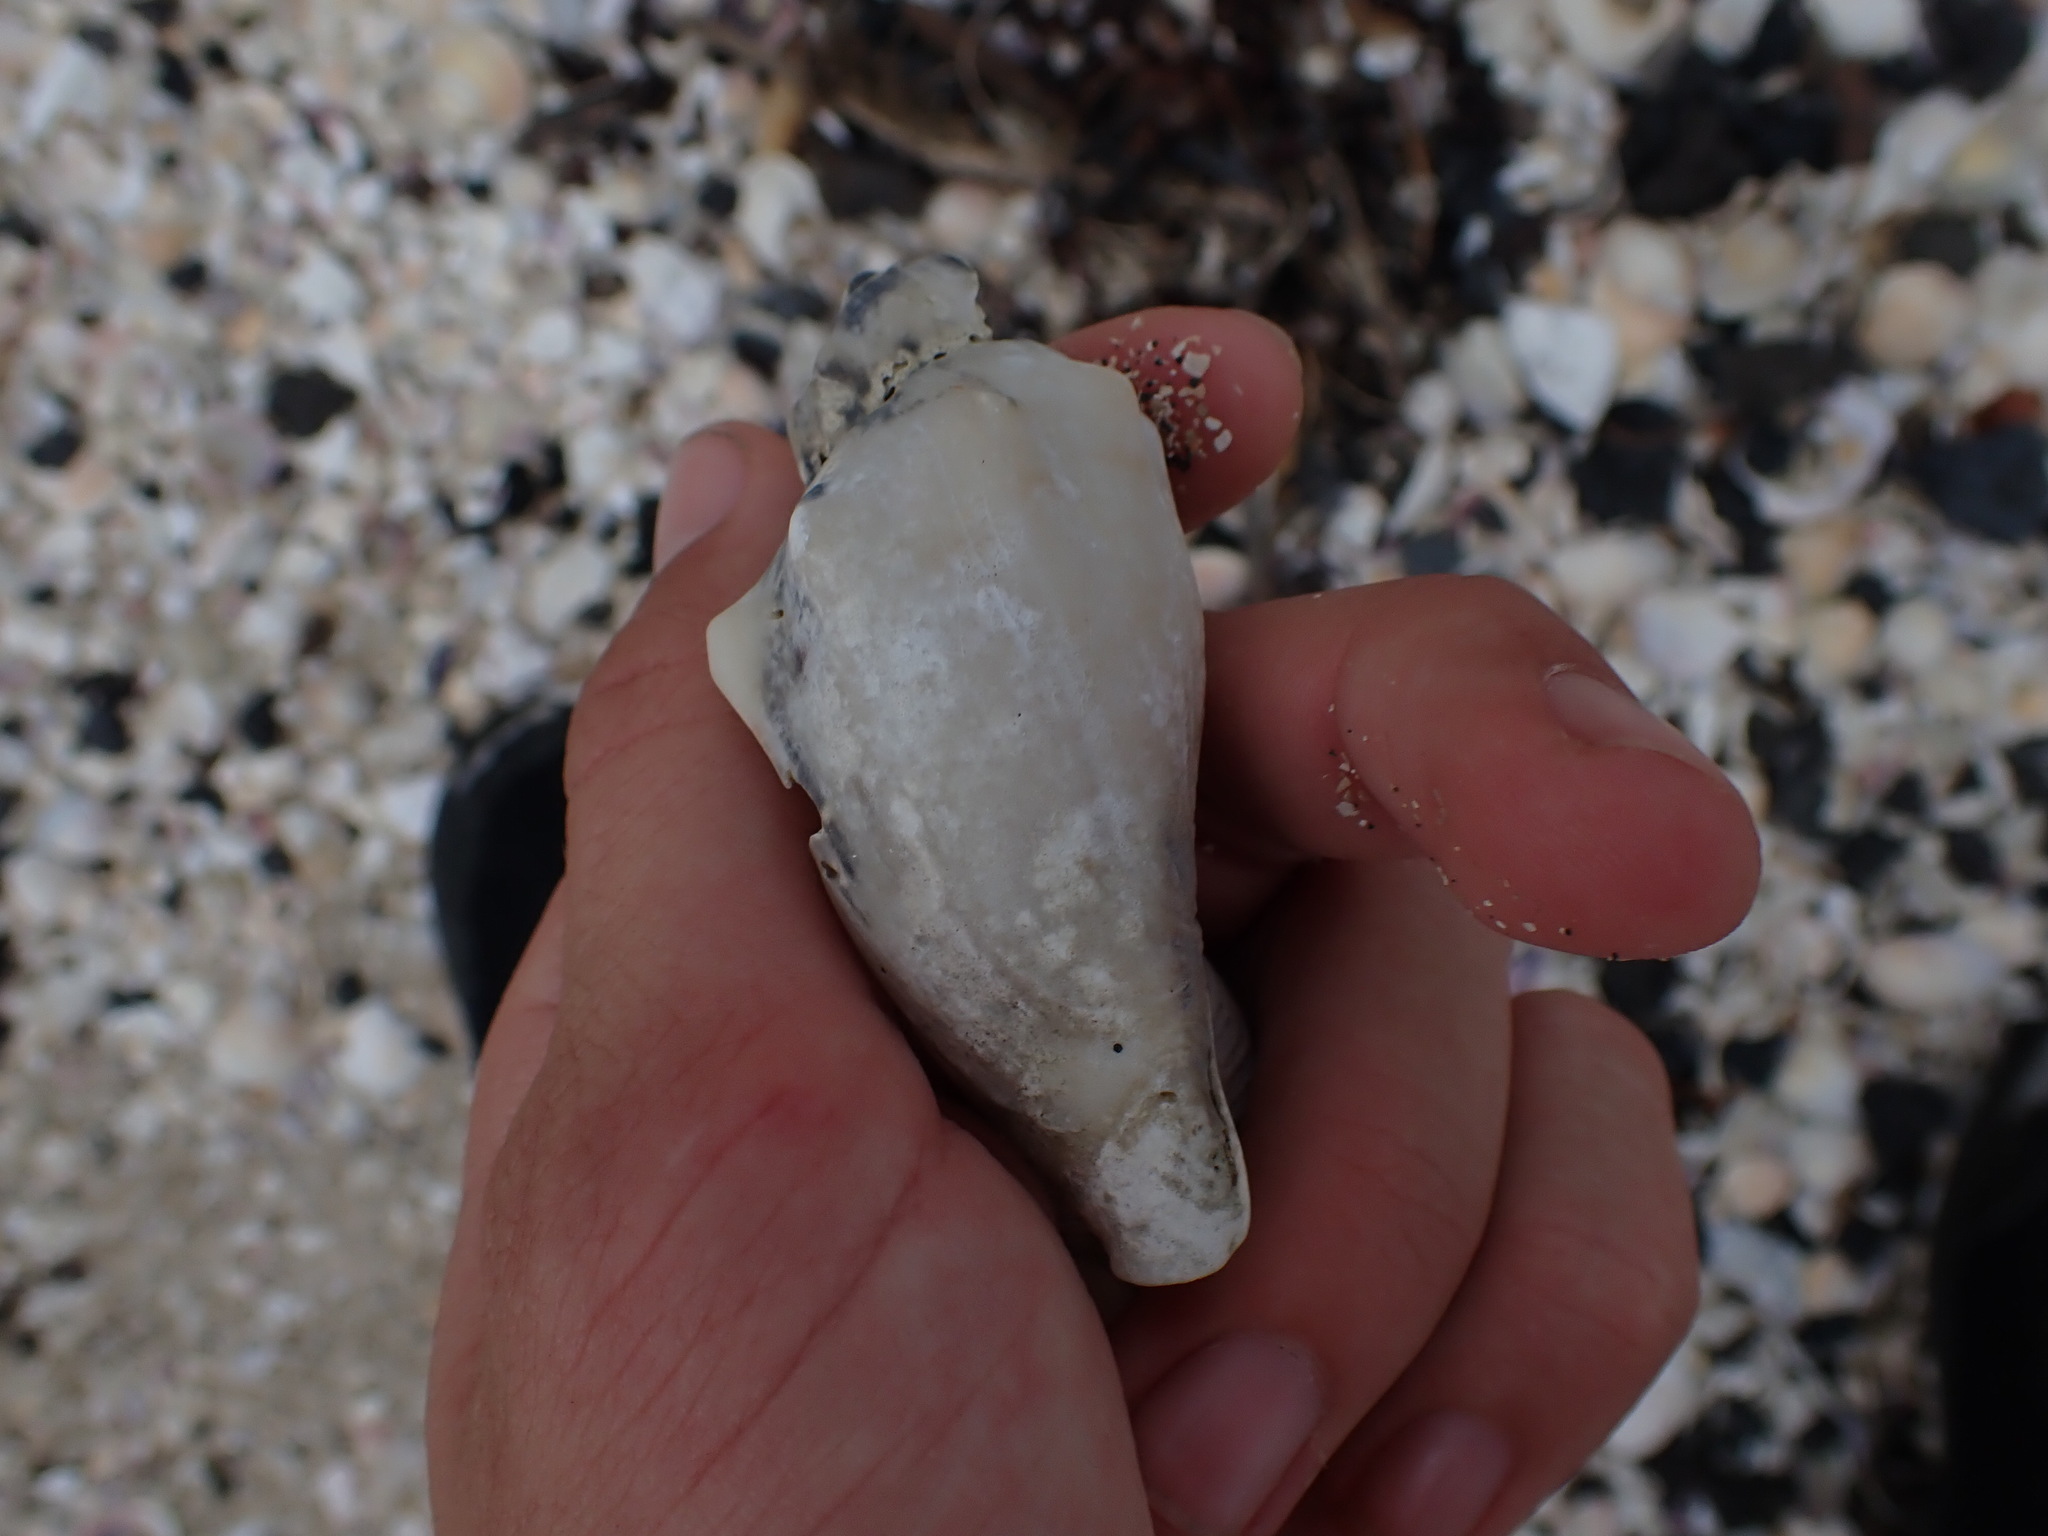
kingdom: Animalia
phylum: Mollusca
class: Gastropoda
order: Neogastropoda
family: Volutidae
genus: Alcithoe
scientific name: Alcithoe arabica
